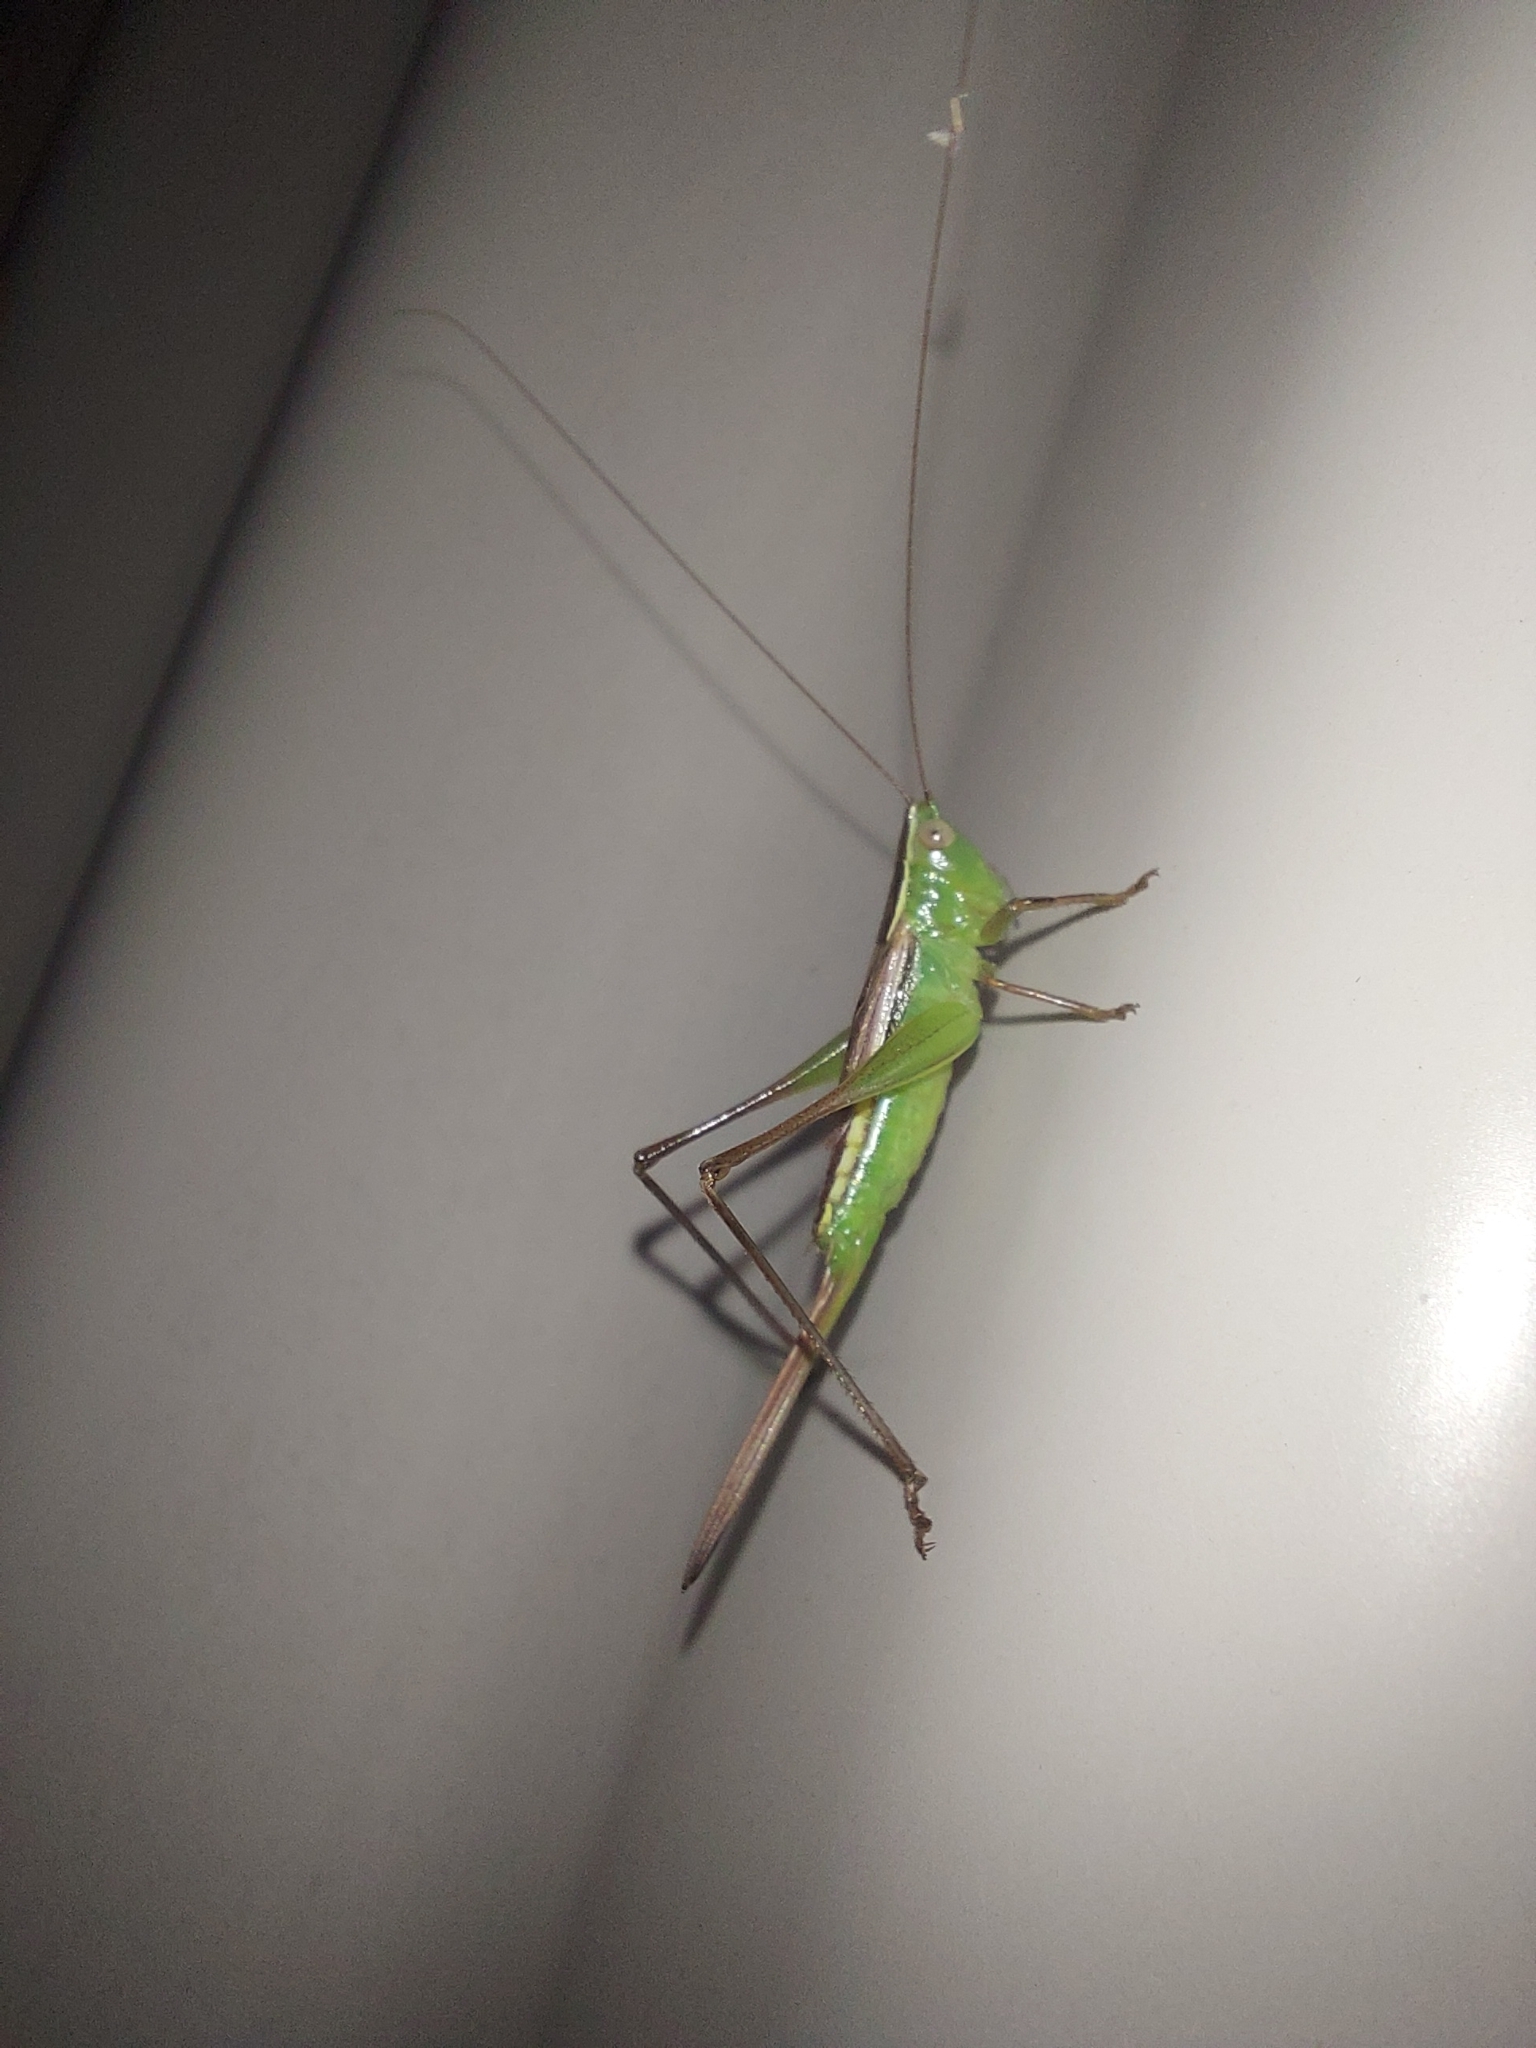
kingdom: Animalia
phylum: Arthropoda
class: Insecta
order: Orthoptera
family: Tettigoniidae
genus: Conocephalus
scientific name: Conocephalus albescens
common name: Whitish meadow katydid
